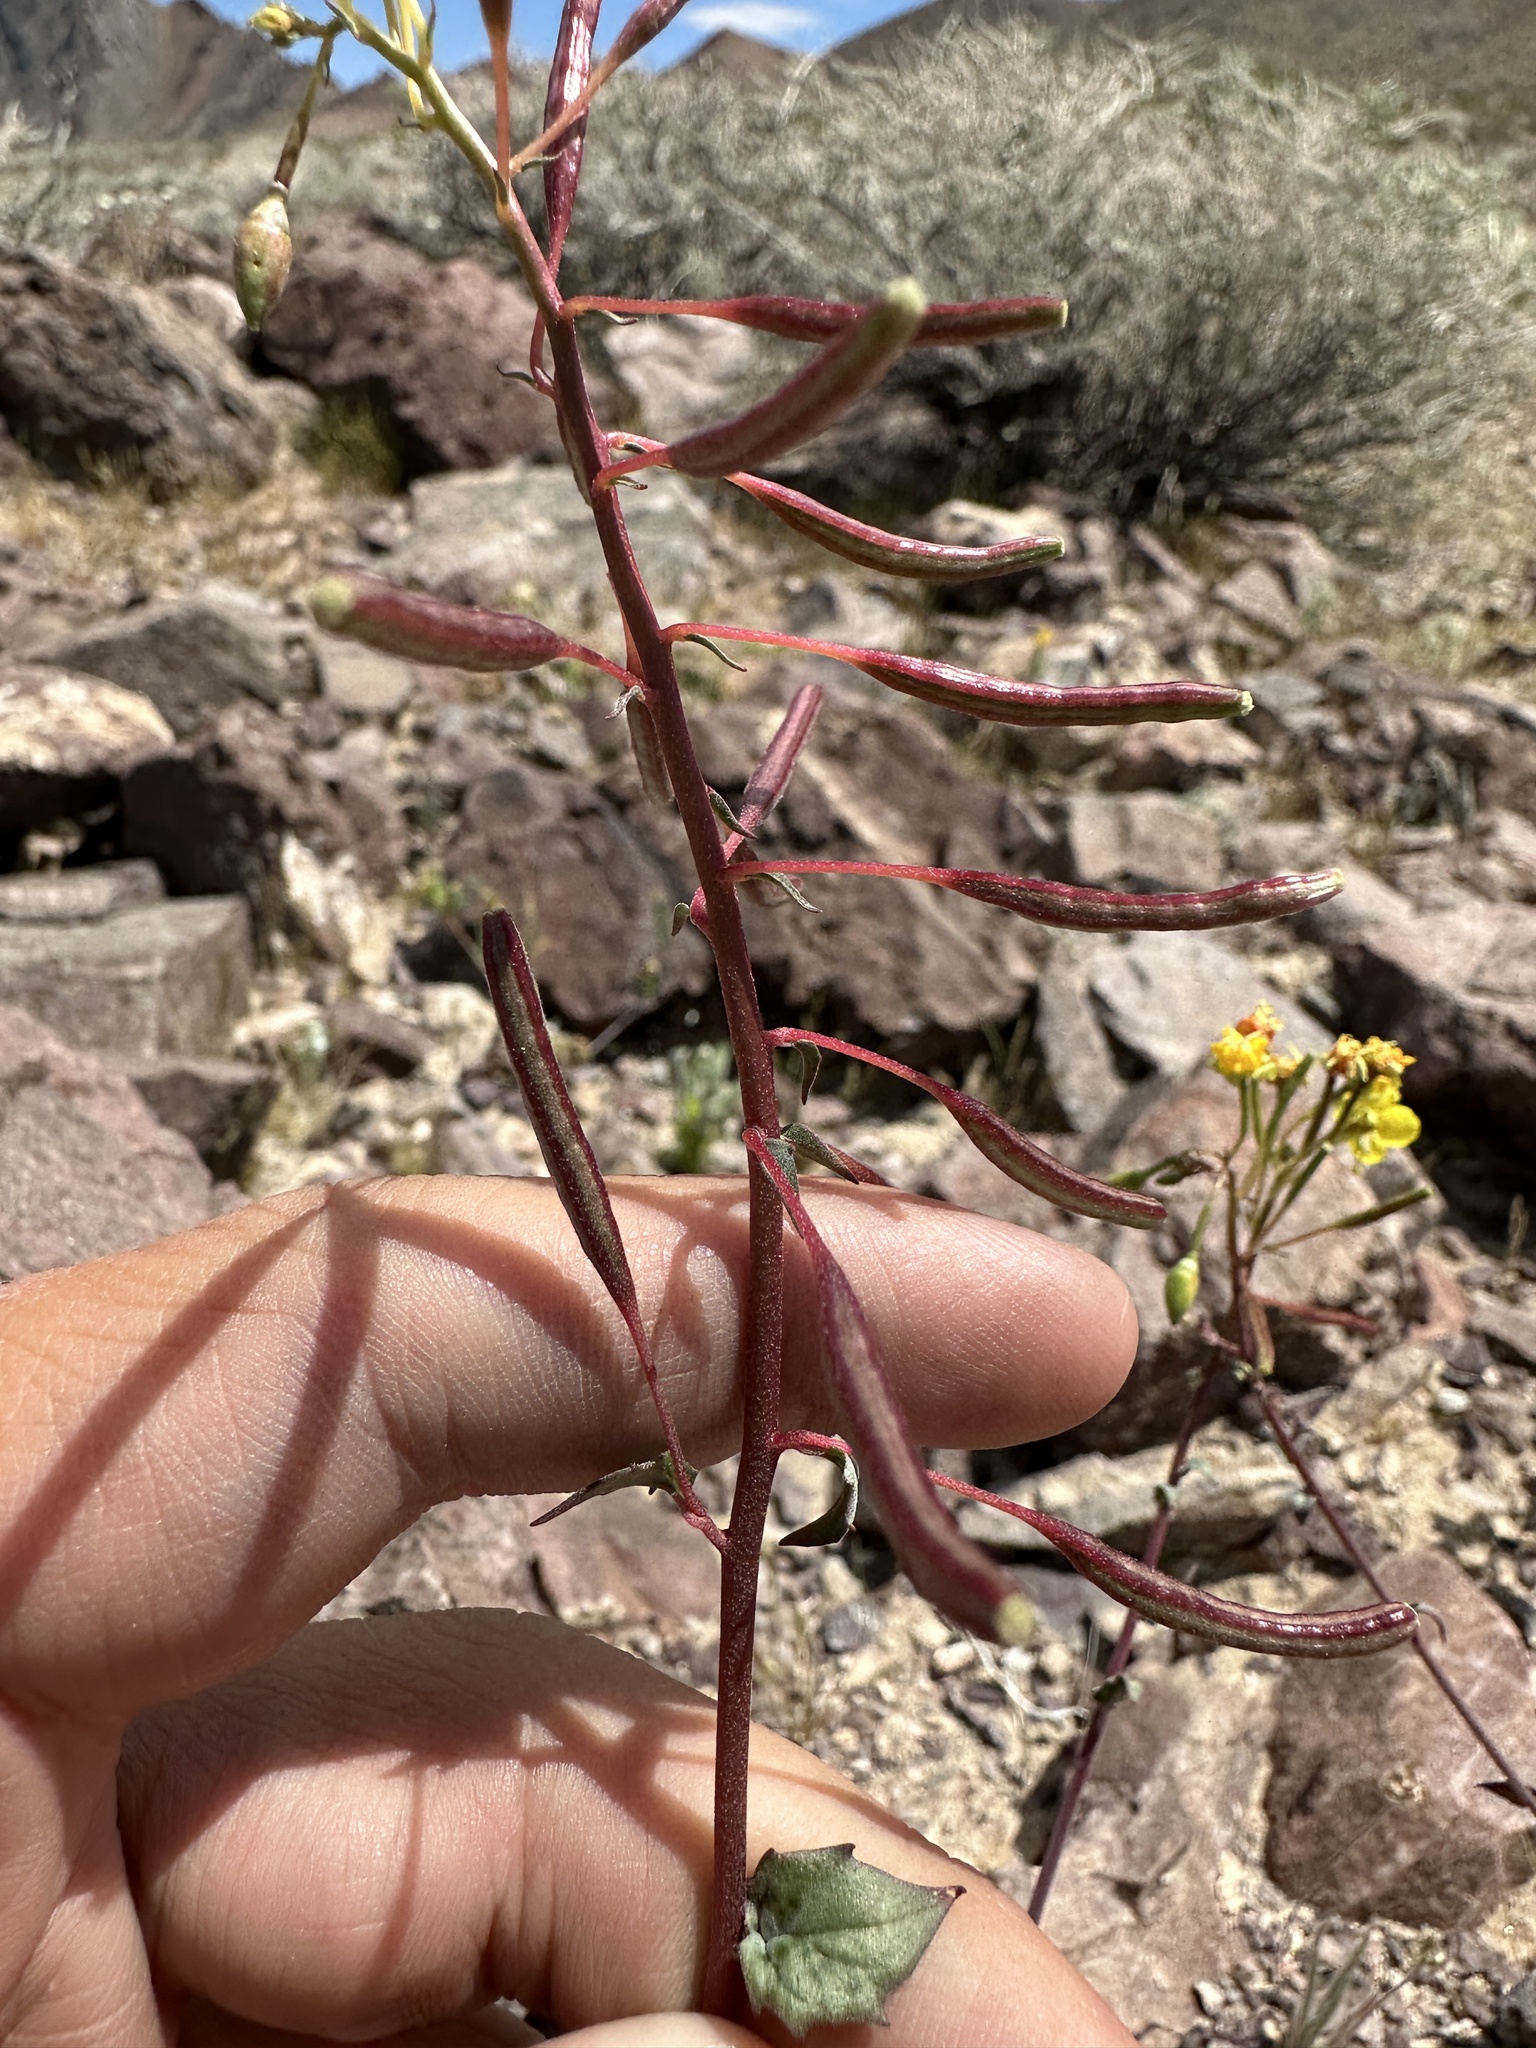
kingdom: Plantae
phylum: Tracheophyta
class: Magnoliopsida
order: Myrtales
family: Onagraceae
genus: Chylismia
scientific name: Chylismia munzii
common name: Death valley suncup
